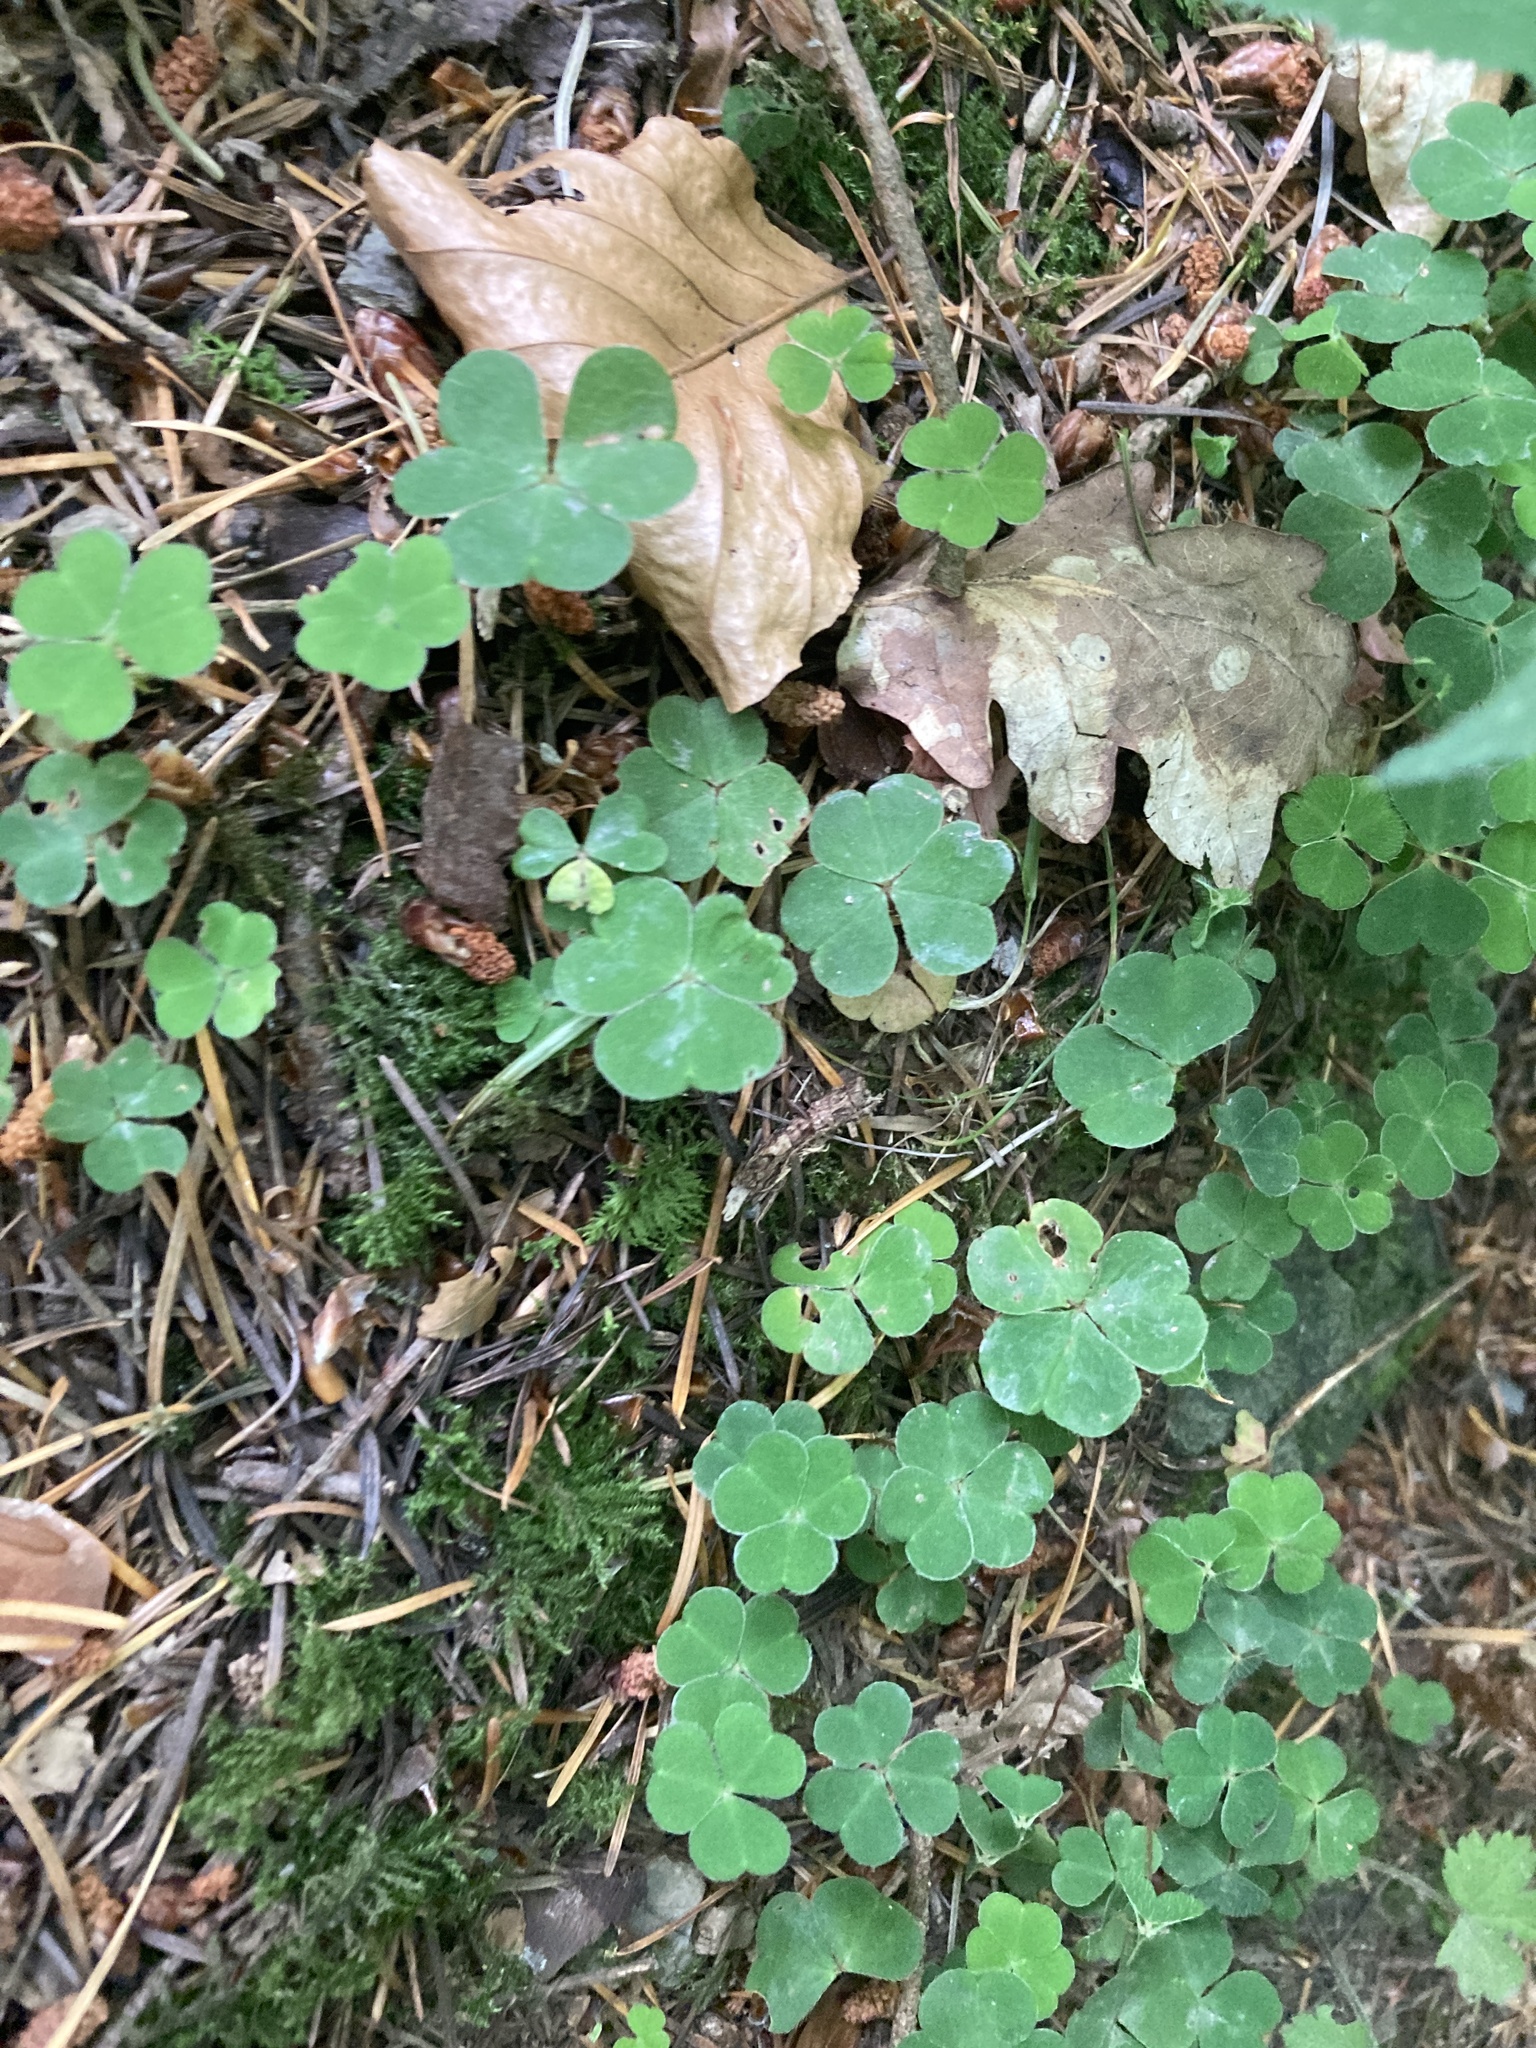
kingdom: Plantae
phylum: Tracheophyta
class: Magnoliopsida
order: Oxalidales
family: Oxalidaceae
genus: Oxalis
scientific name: Oxalis acetosella
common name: Wood-sorrel
